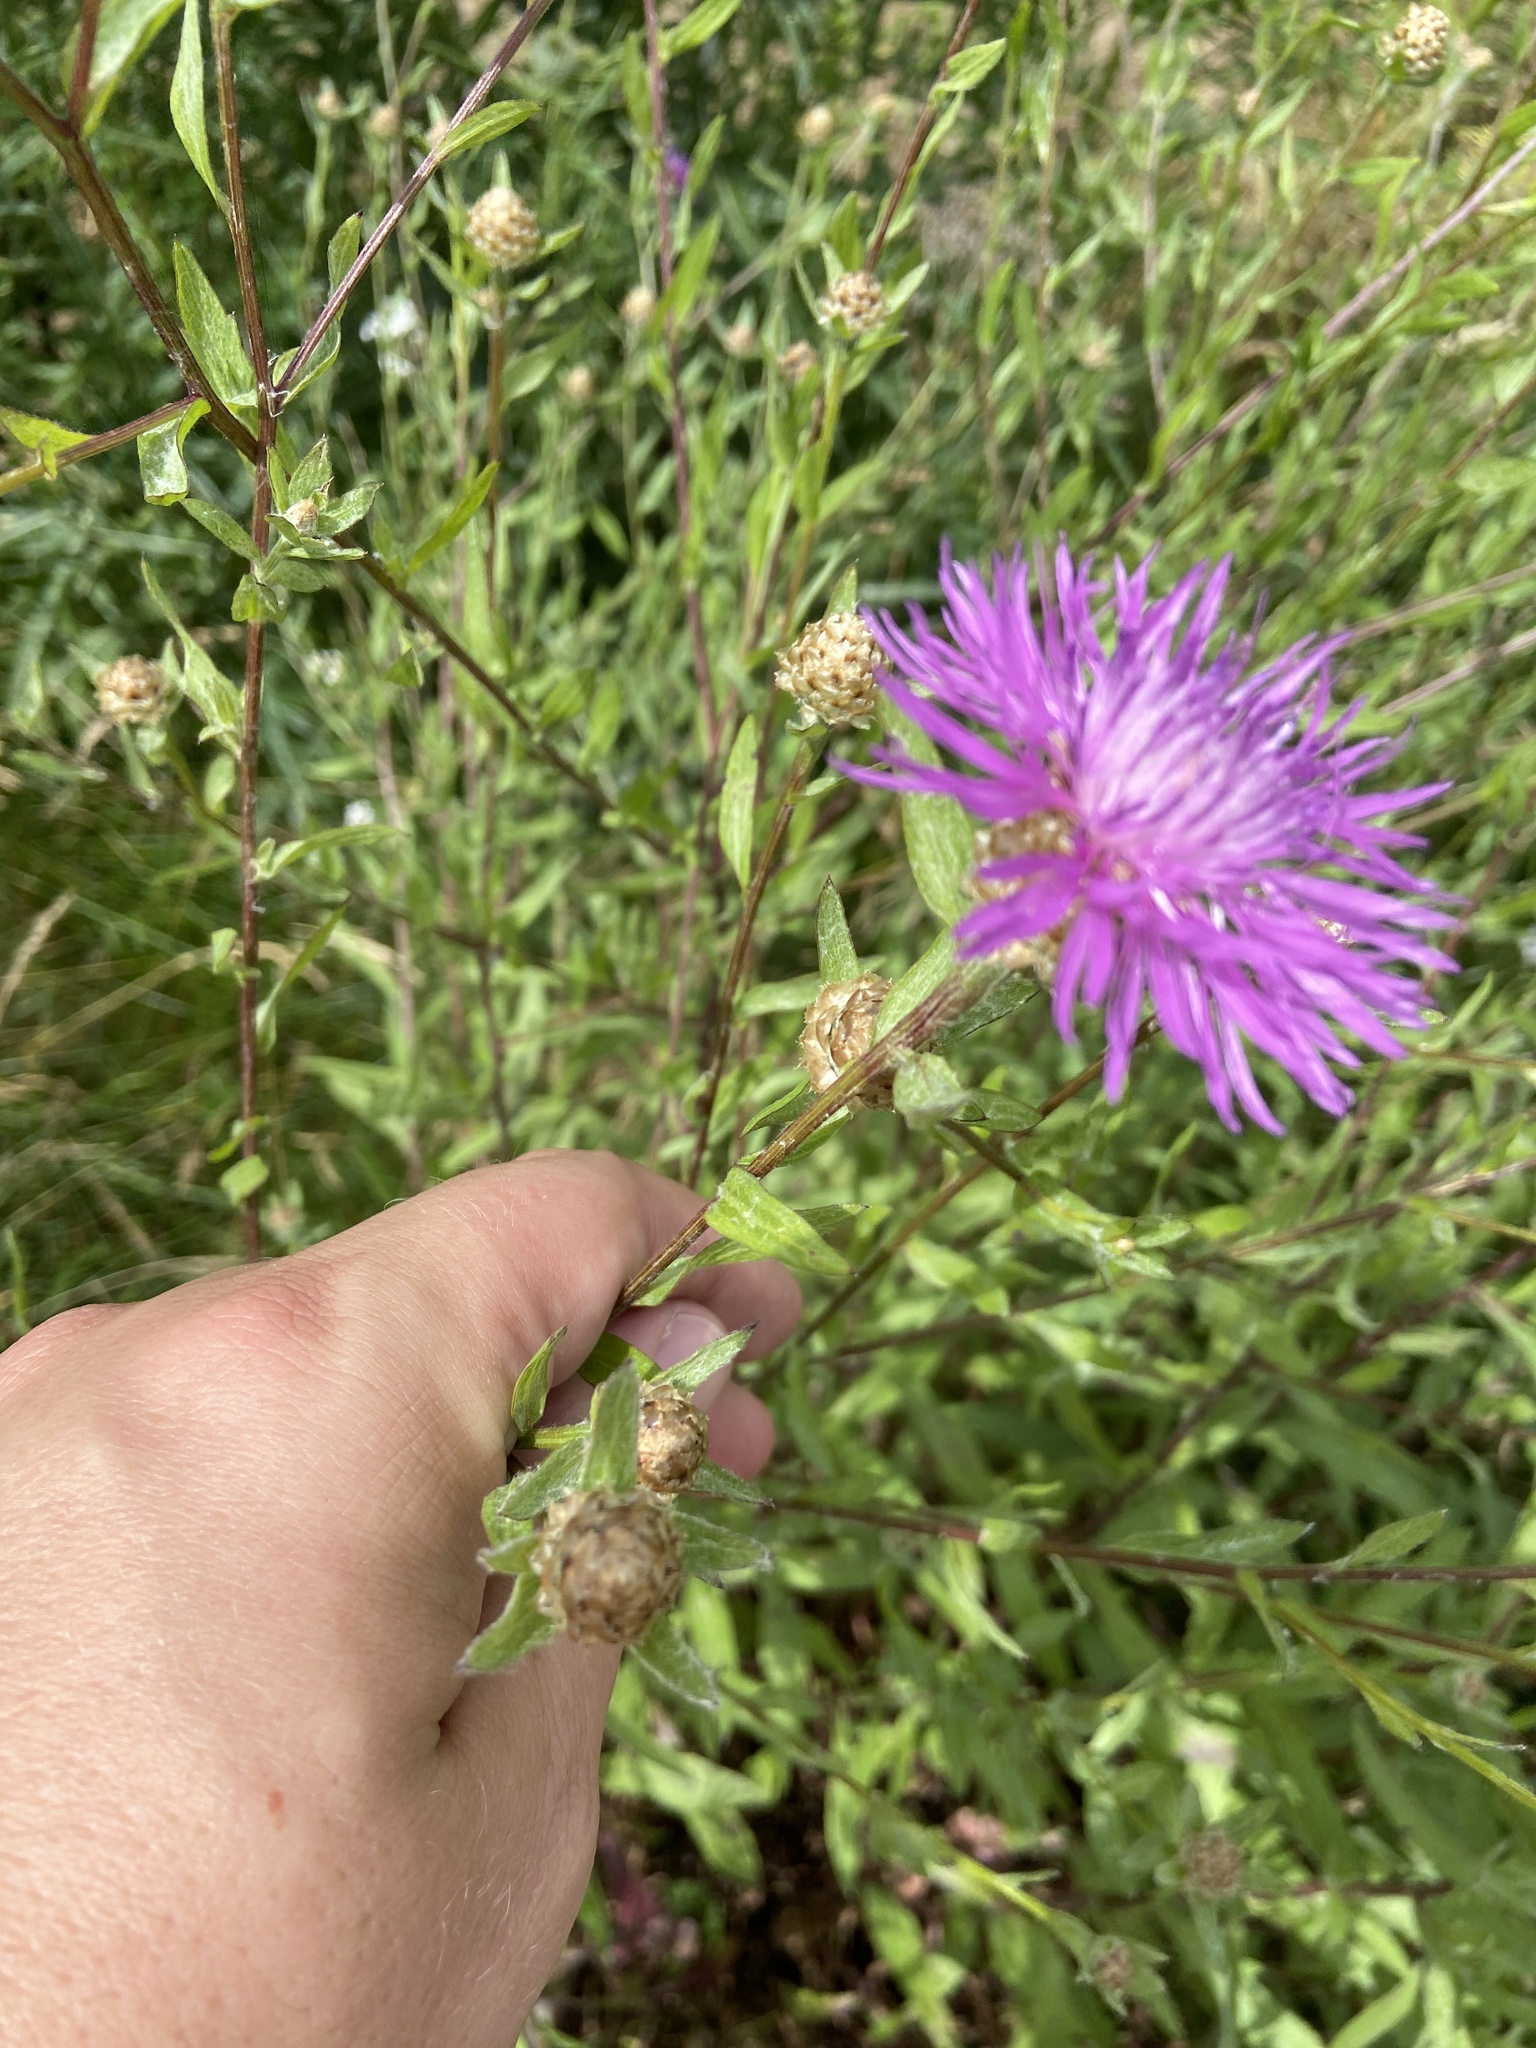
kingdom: Plantae
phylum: Tracheophyta
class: Magnoliopsida
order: Asterales
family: Asteraceae
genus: Centaurea
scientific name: Centaurea jacea
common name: Brown knapweed
